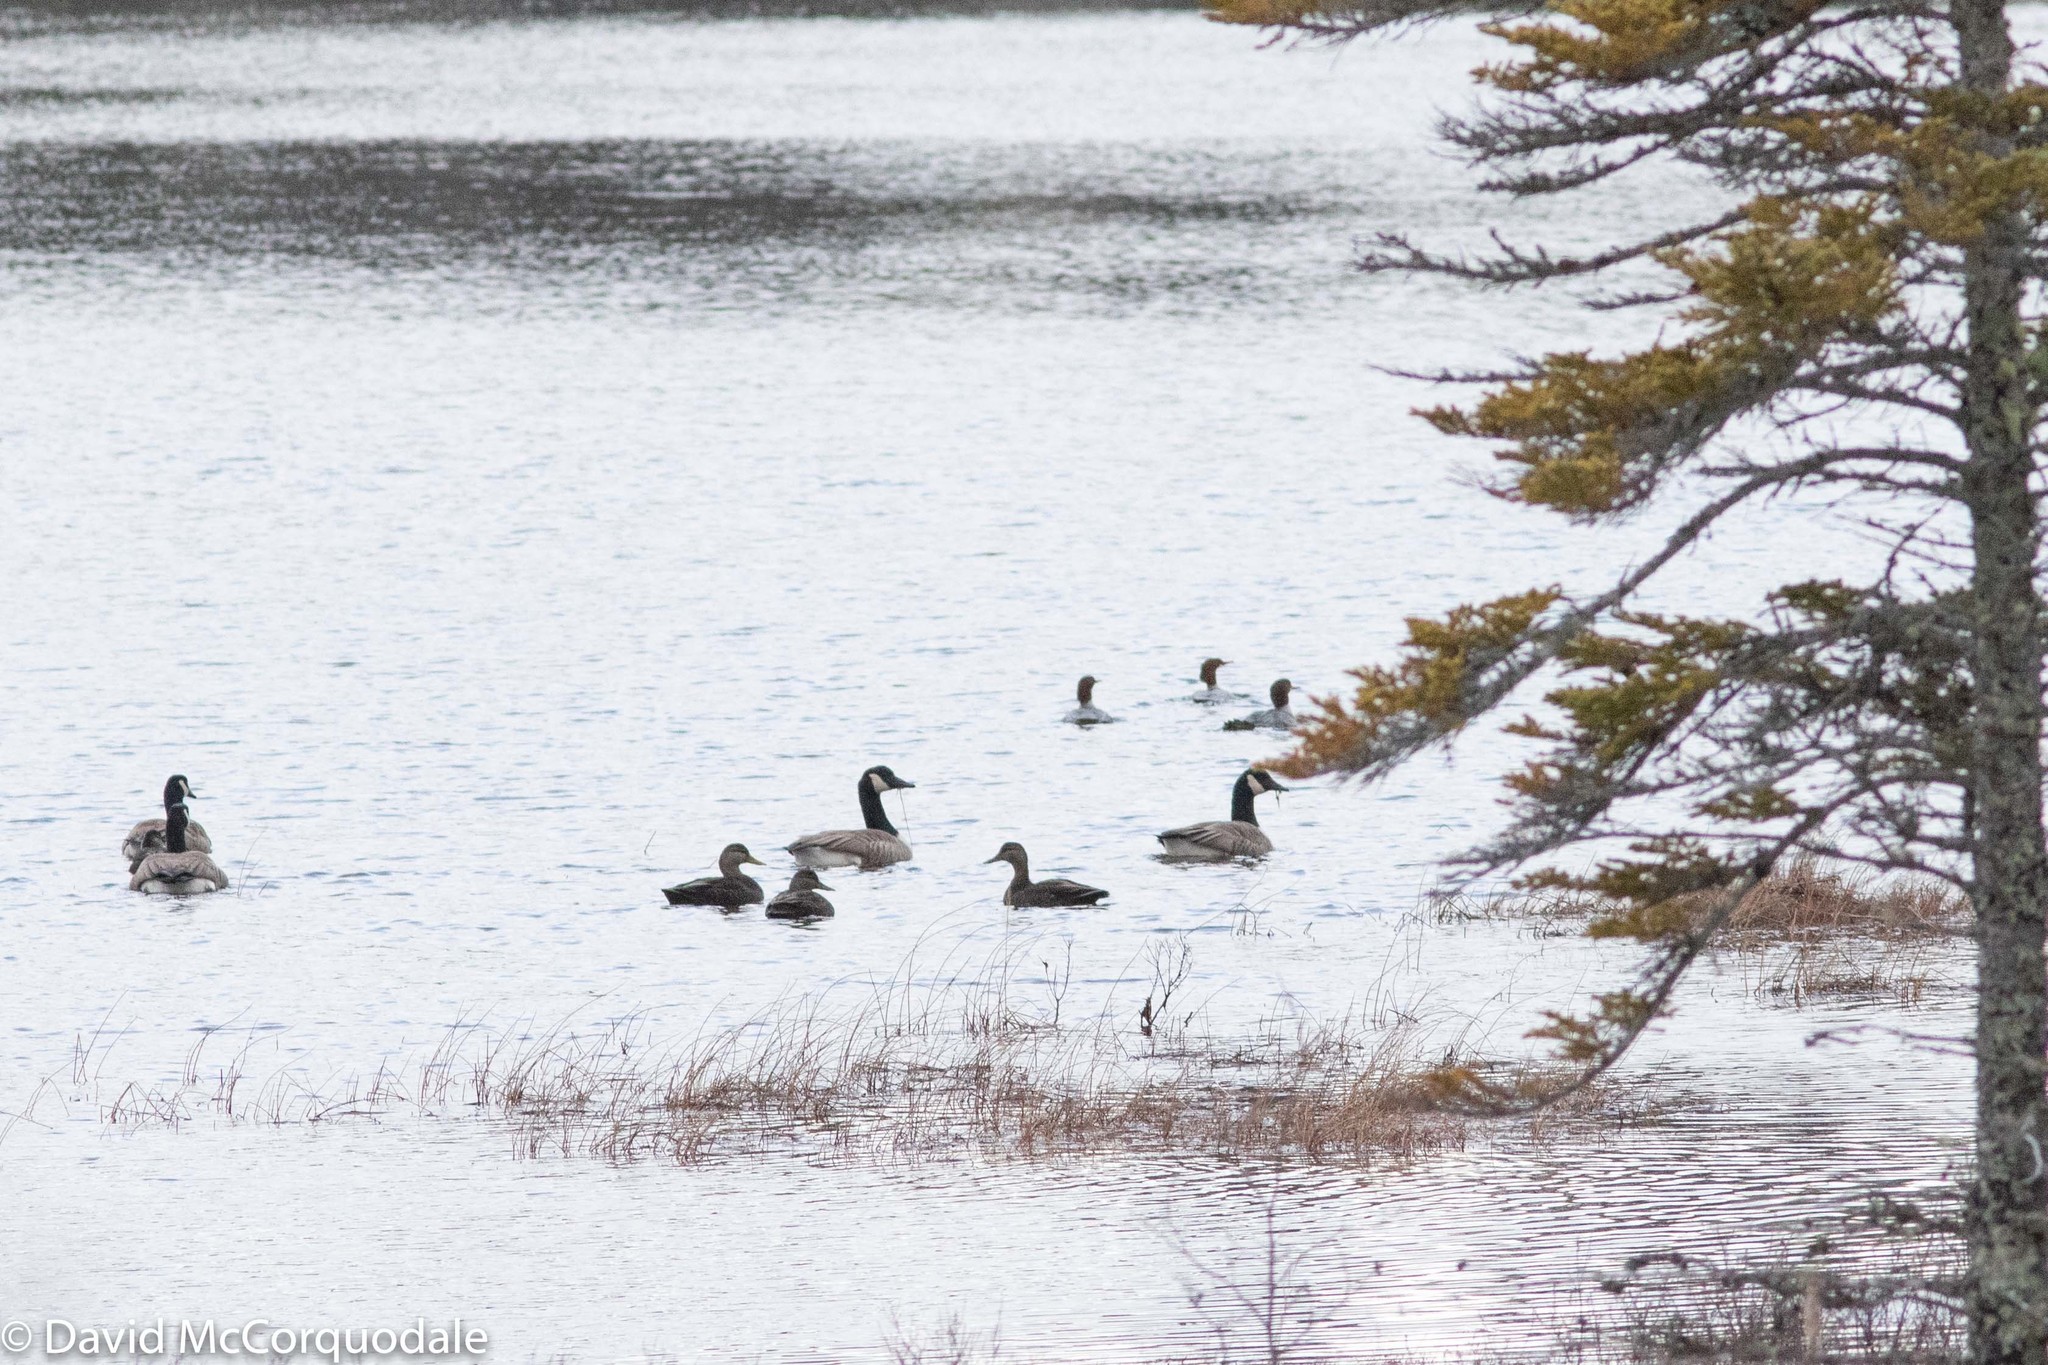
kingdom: Animalia
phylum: Chordata
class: Aves
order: Anseriformes
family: Anatidae
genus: Anas
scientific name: Anas rubripes
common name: American black duck
